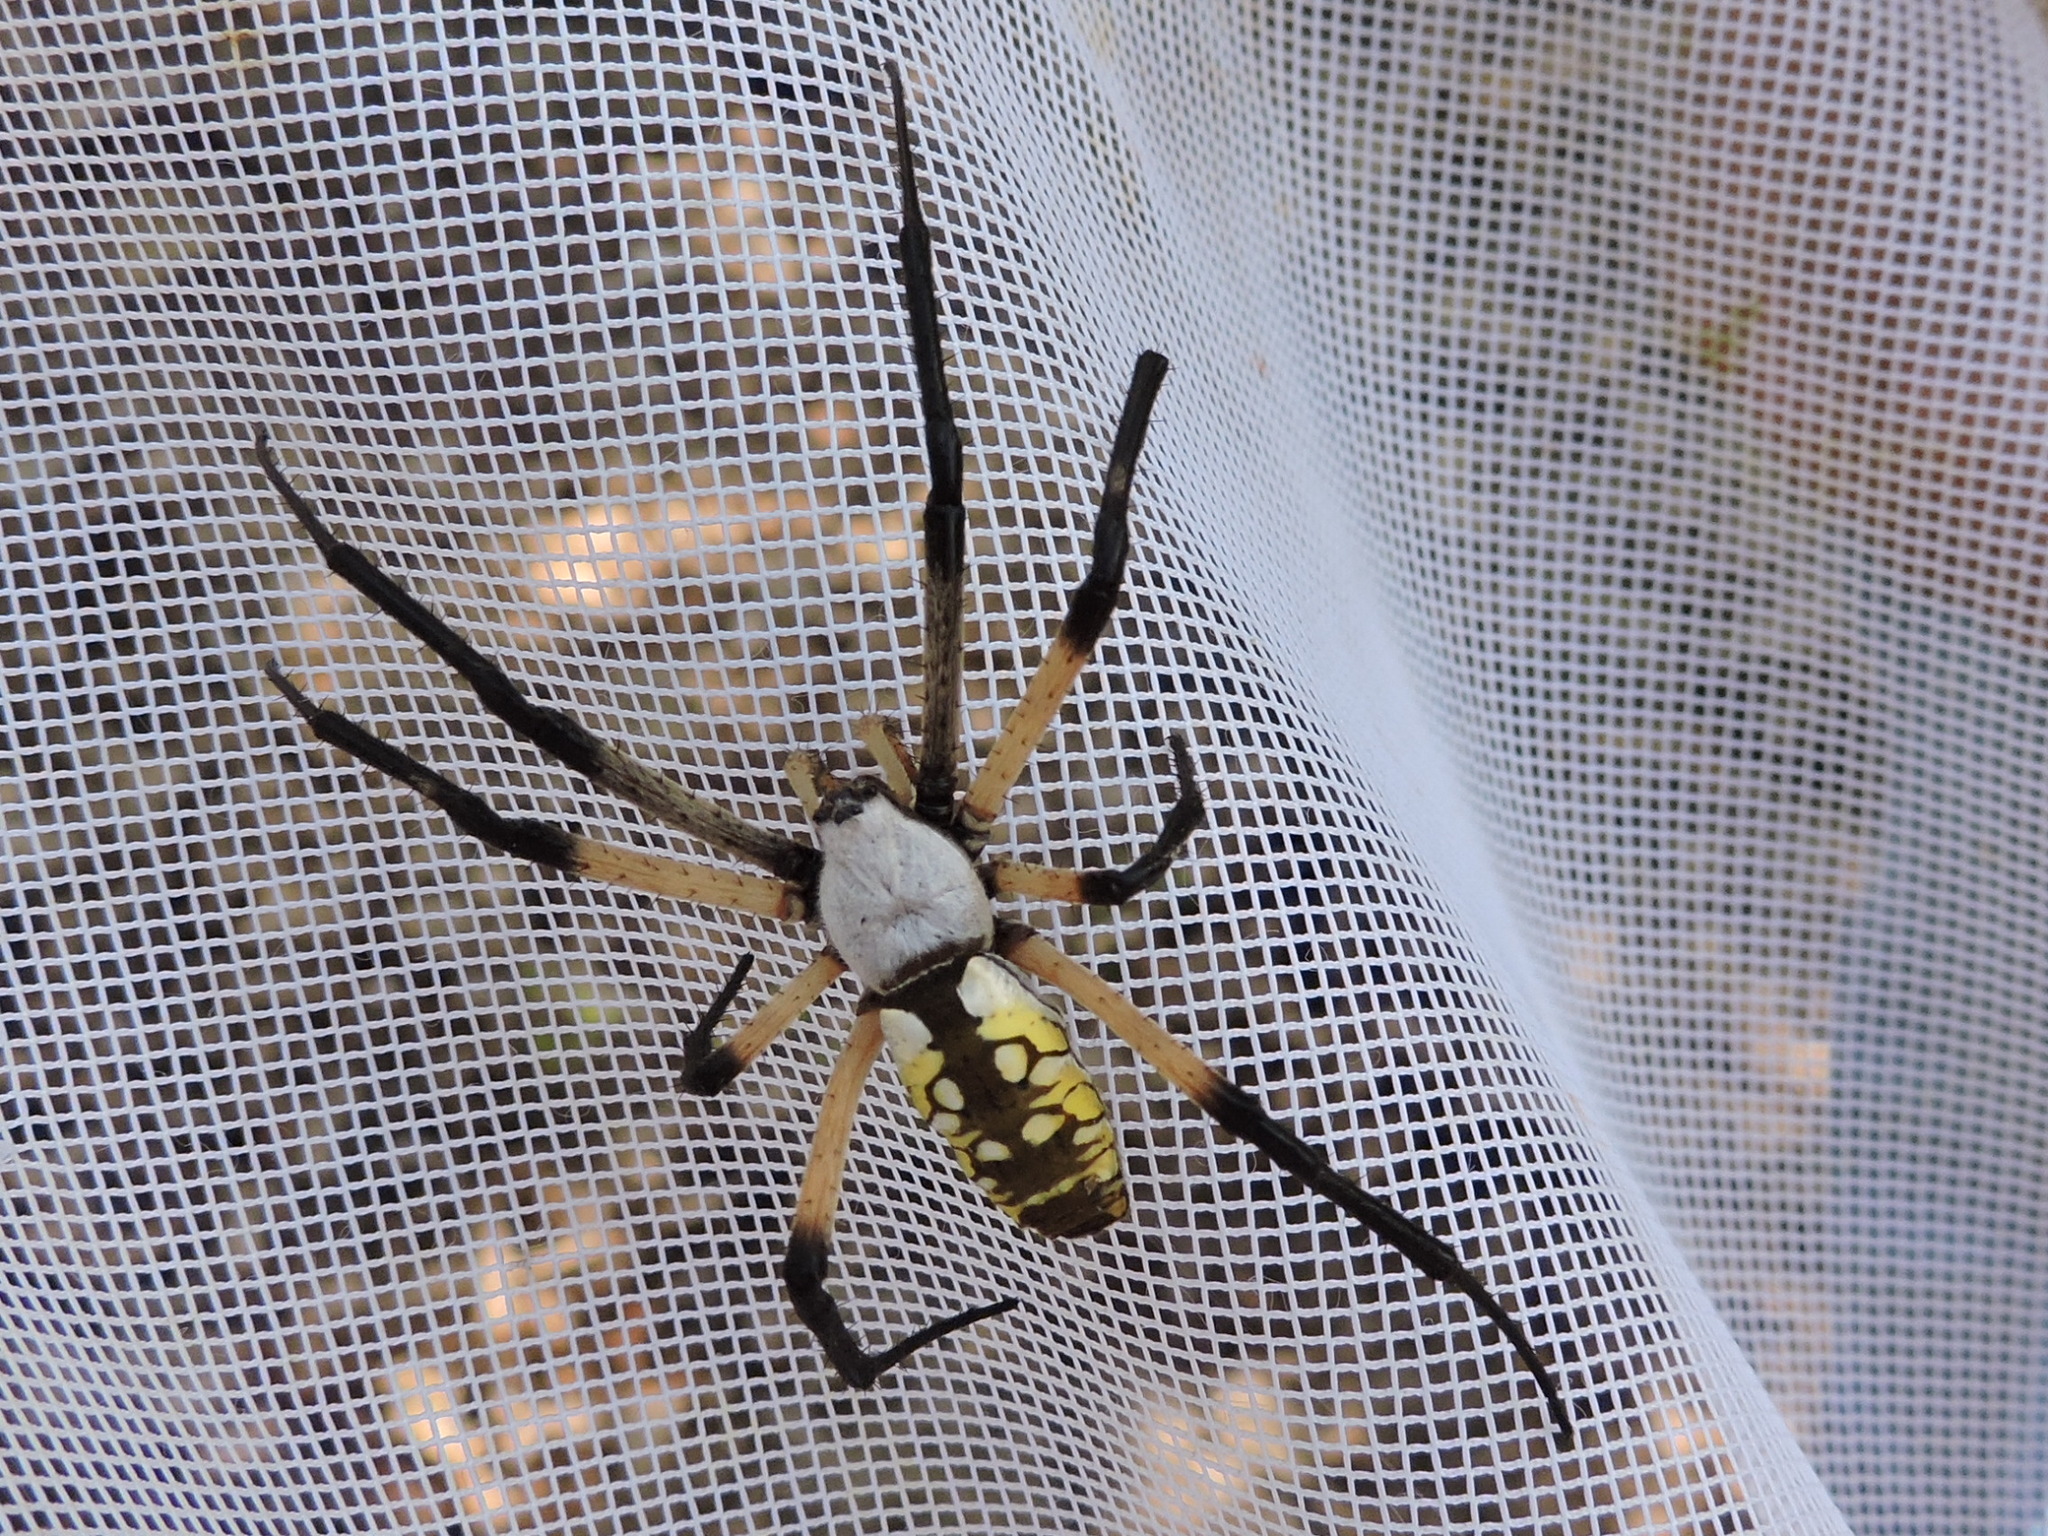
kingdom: Animalia
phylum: Arthropoda
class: Arachnida
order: Araneae
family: Araneidae
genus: Argiope
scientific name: Argiope aurantia
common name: Orb weavers
